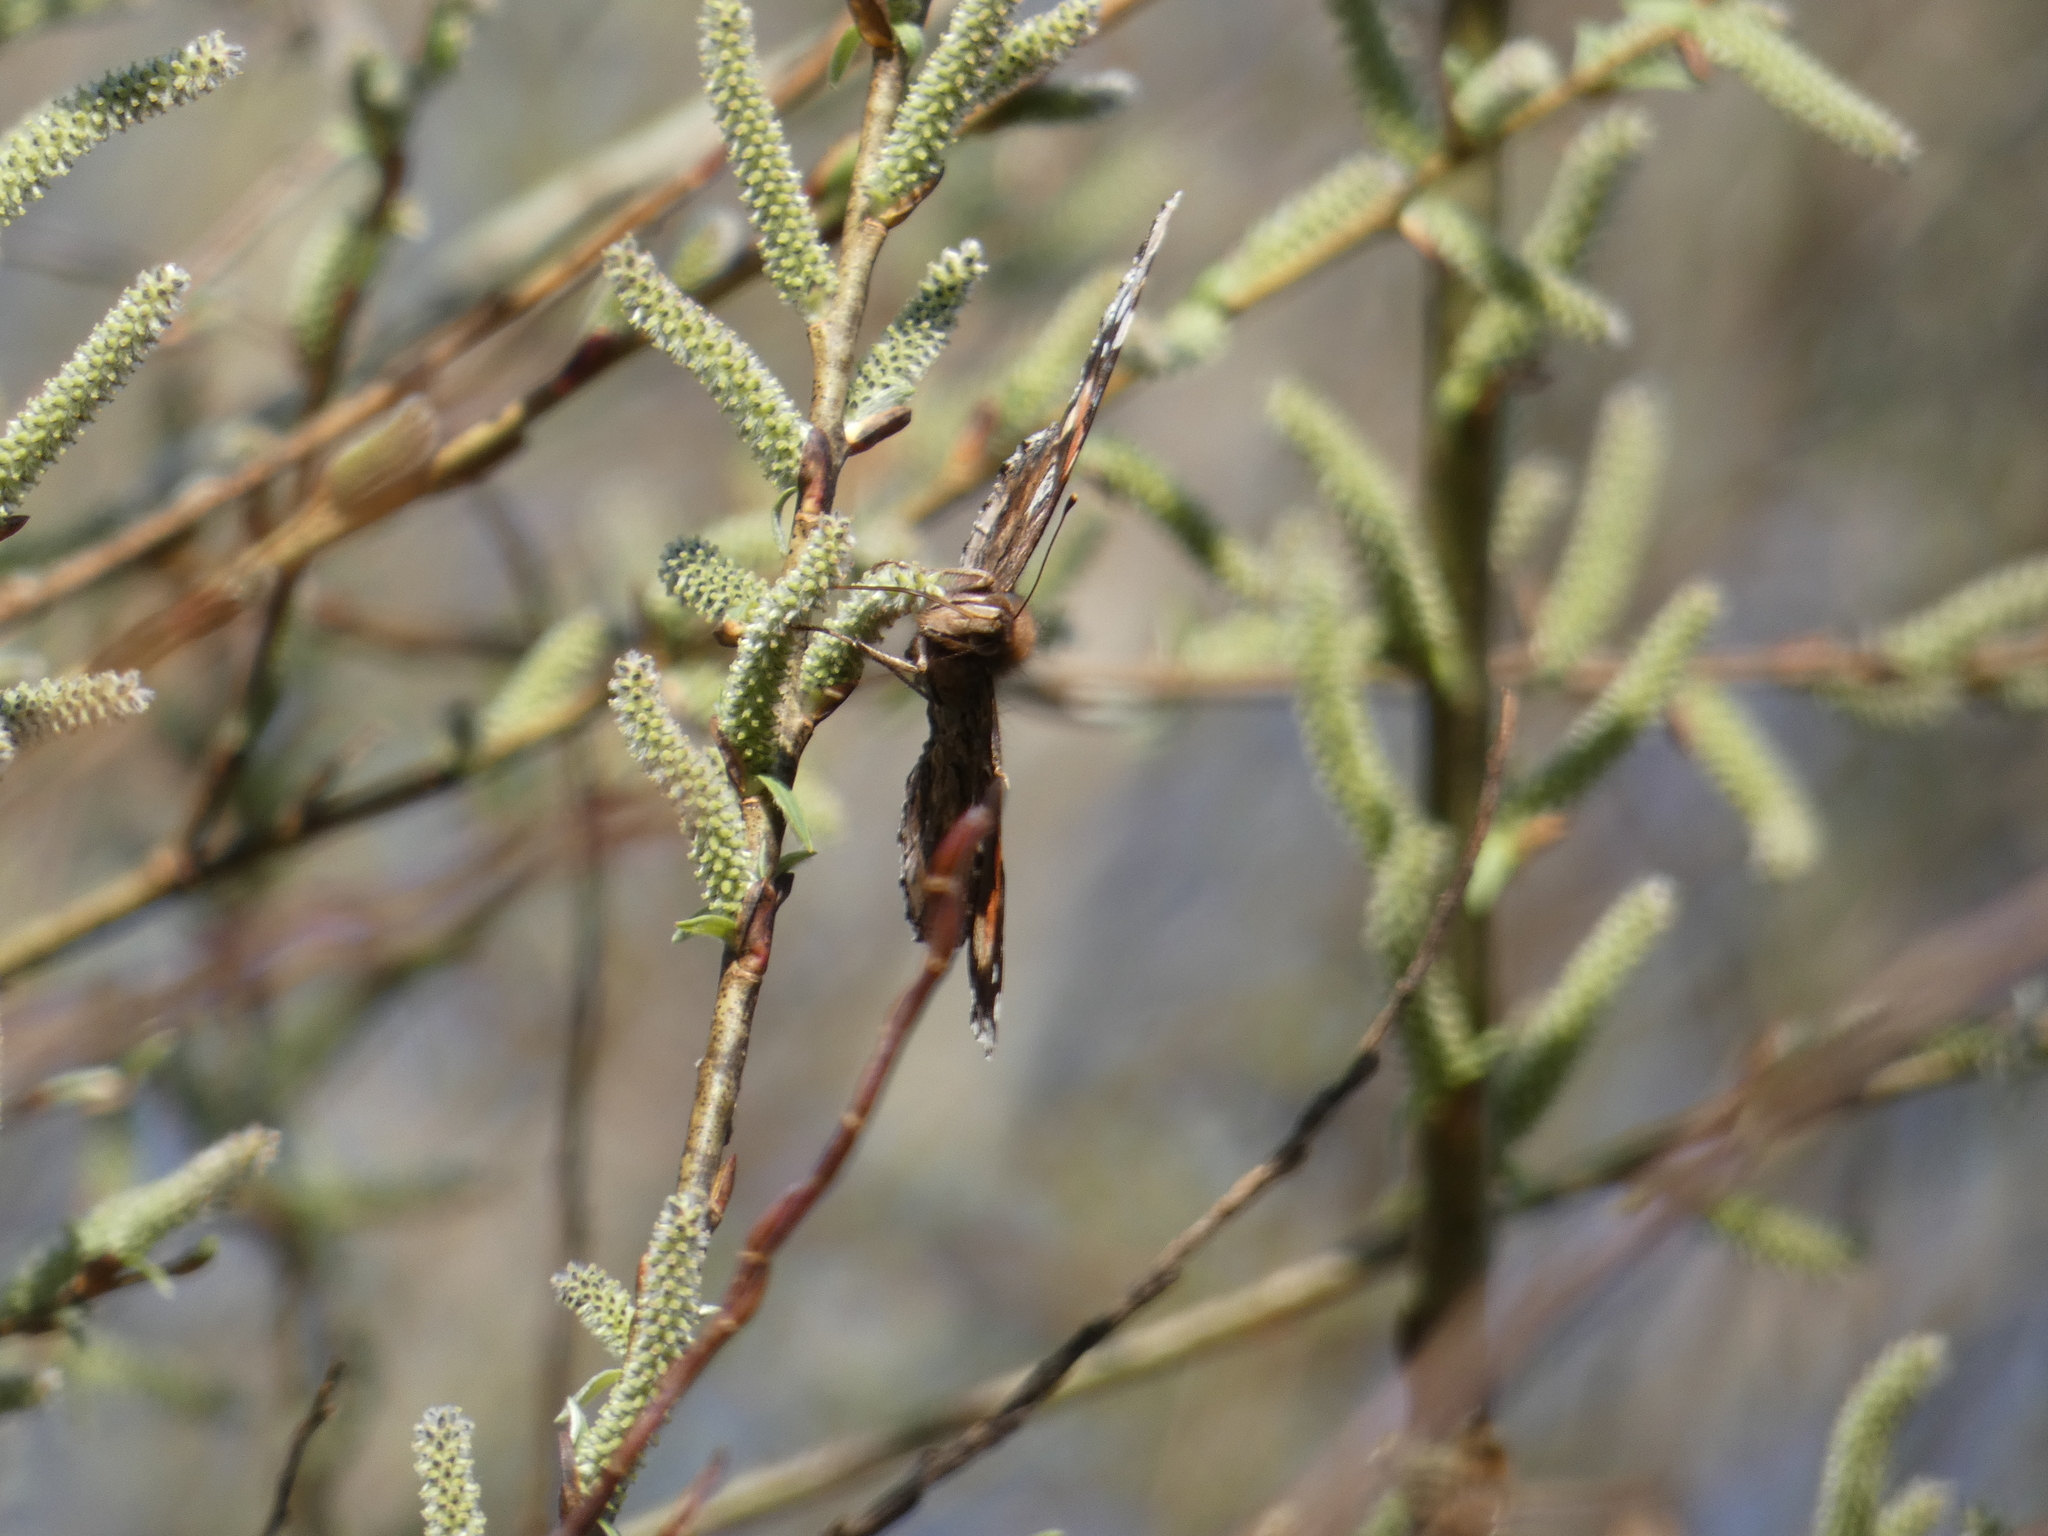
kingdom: Animalia
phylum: Arthropoda
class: Insecta
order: Lepidoptera
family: Nymphalidae
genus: Vanessa
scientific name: Vanessa atalanta
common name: Red admiral
